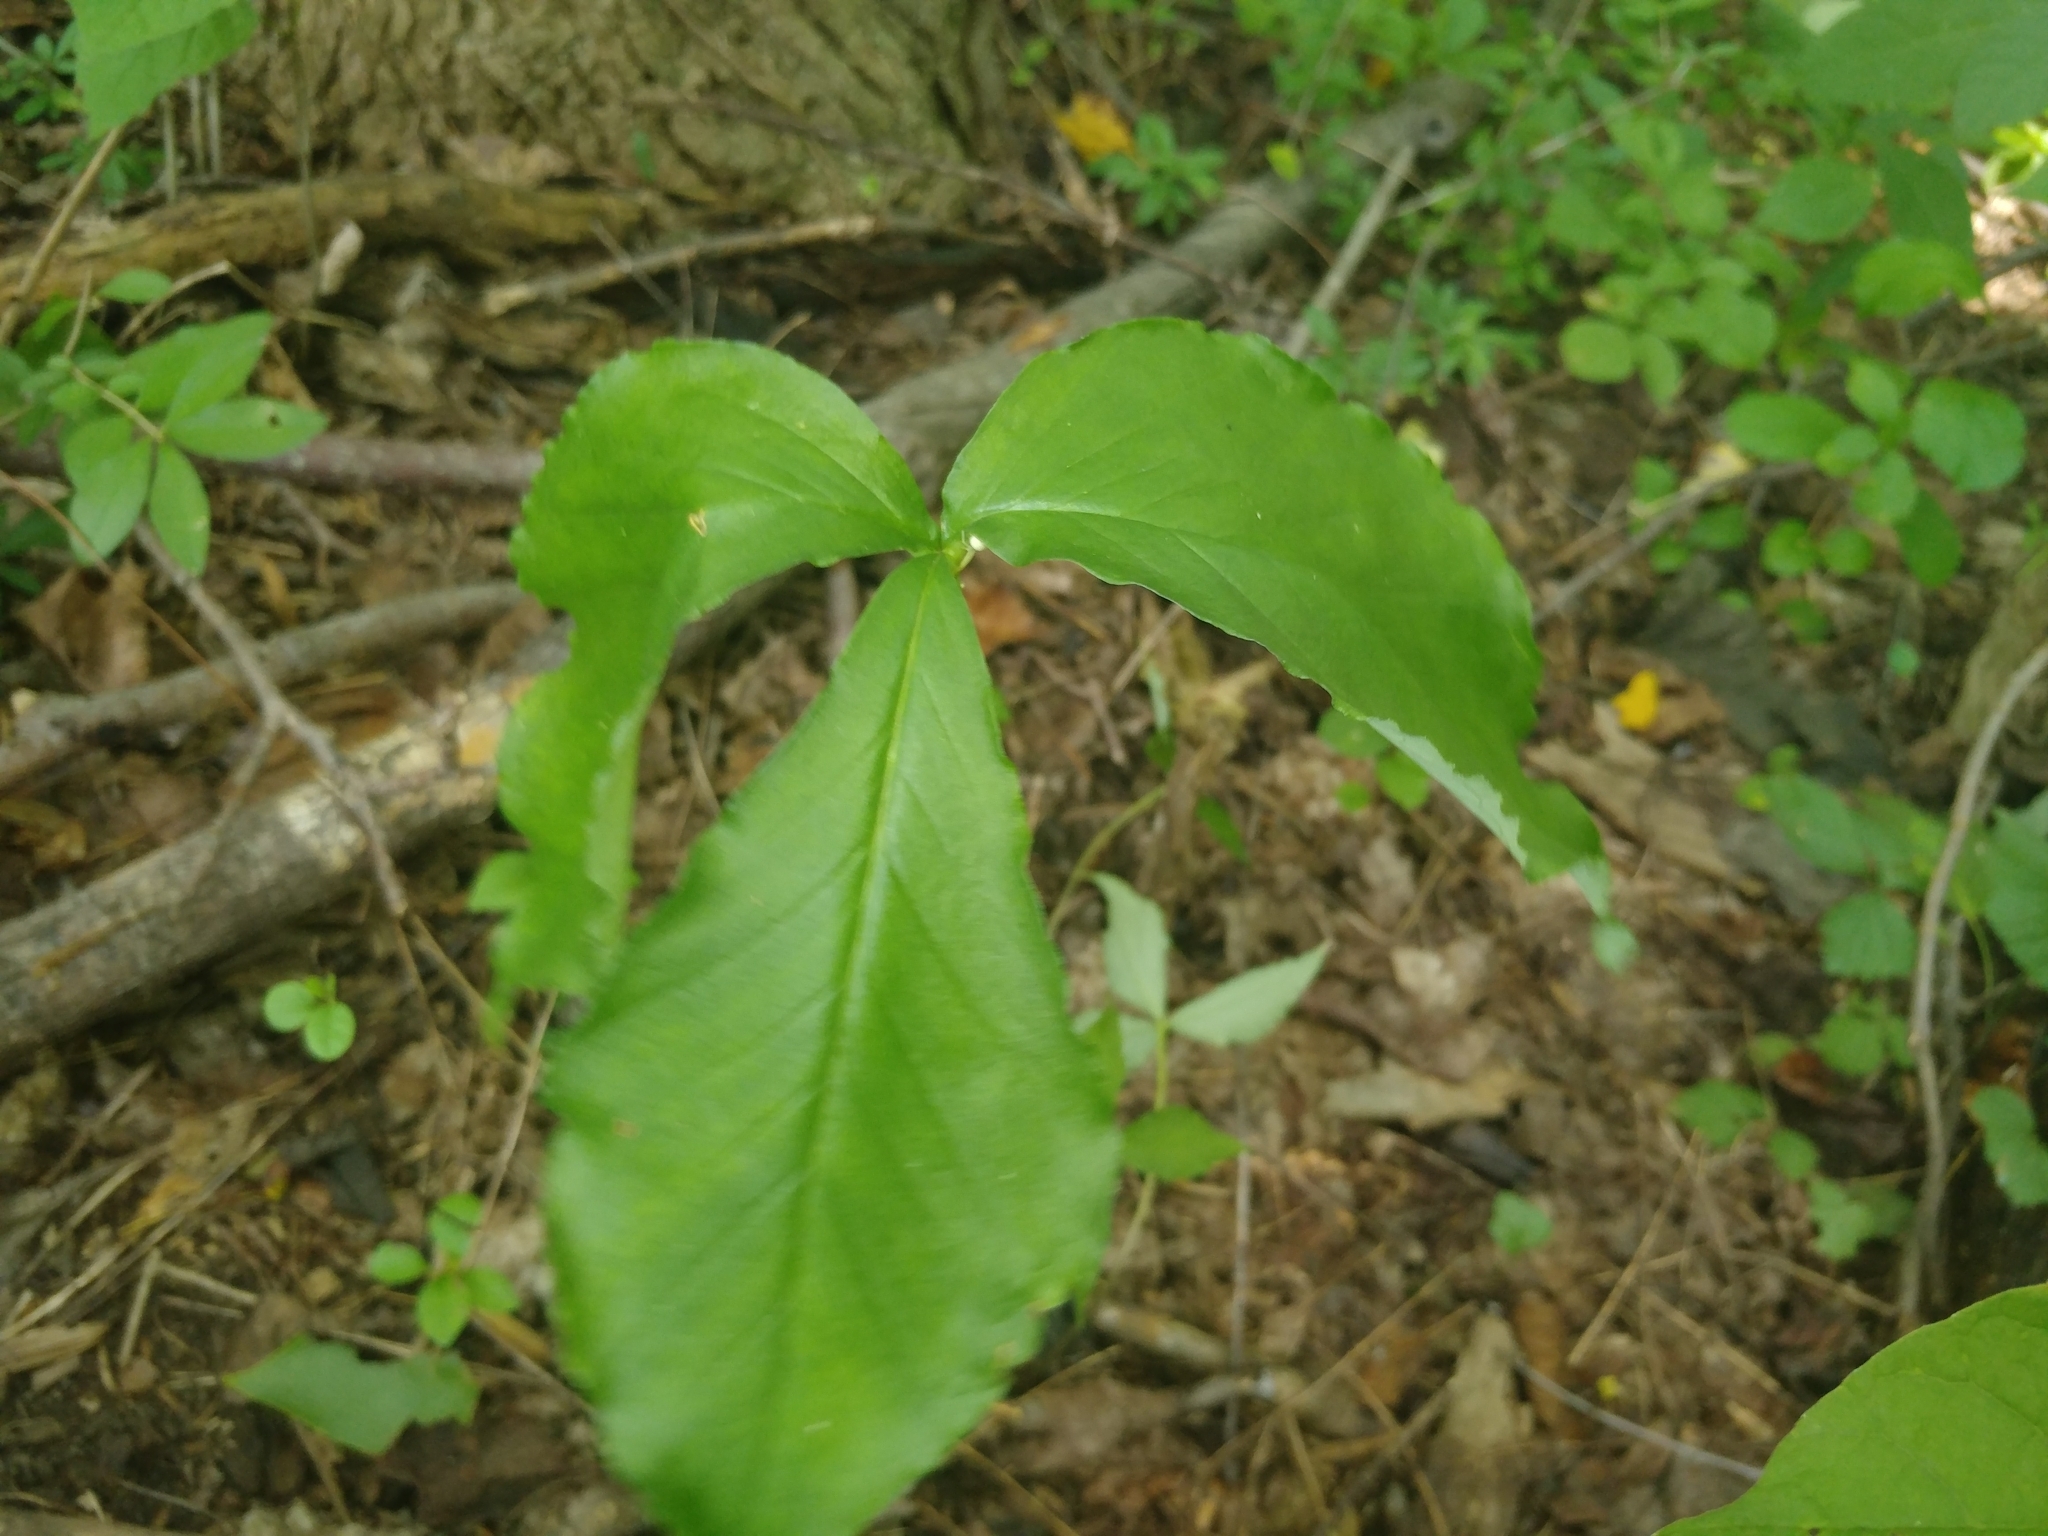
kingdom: Plantae
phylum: Tracheophyta
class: Liliopsida
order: Alismatales
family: Araceae
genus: Arisaema
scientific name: Arisaema triphyllum
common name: Jack-in-the-pulpit
